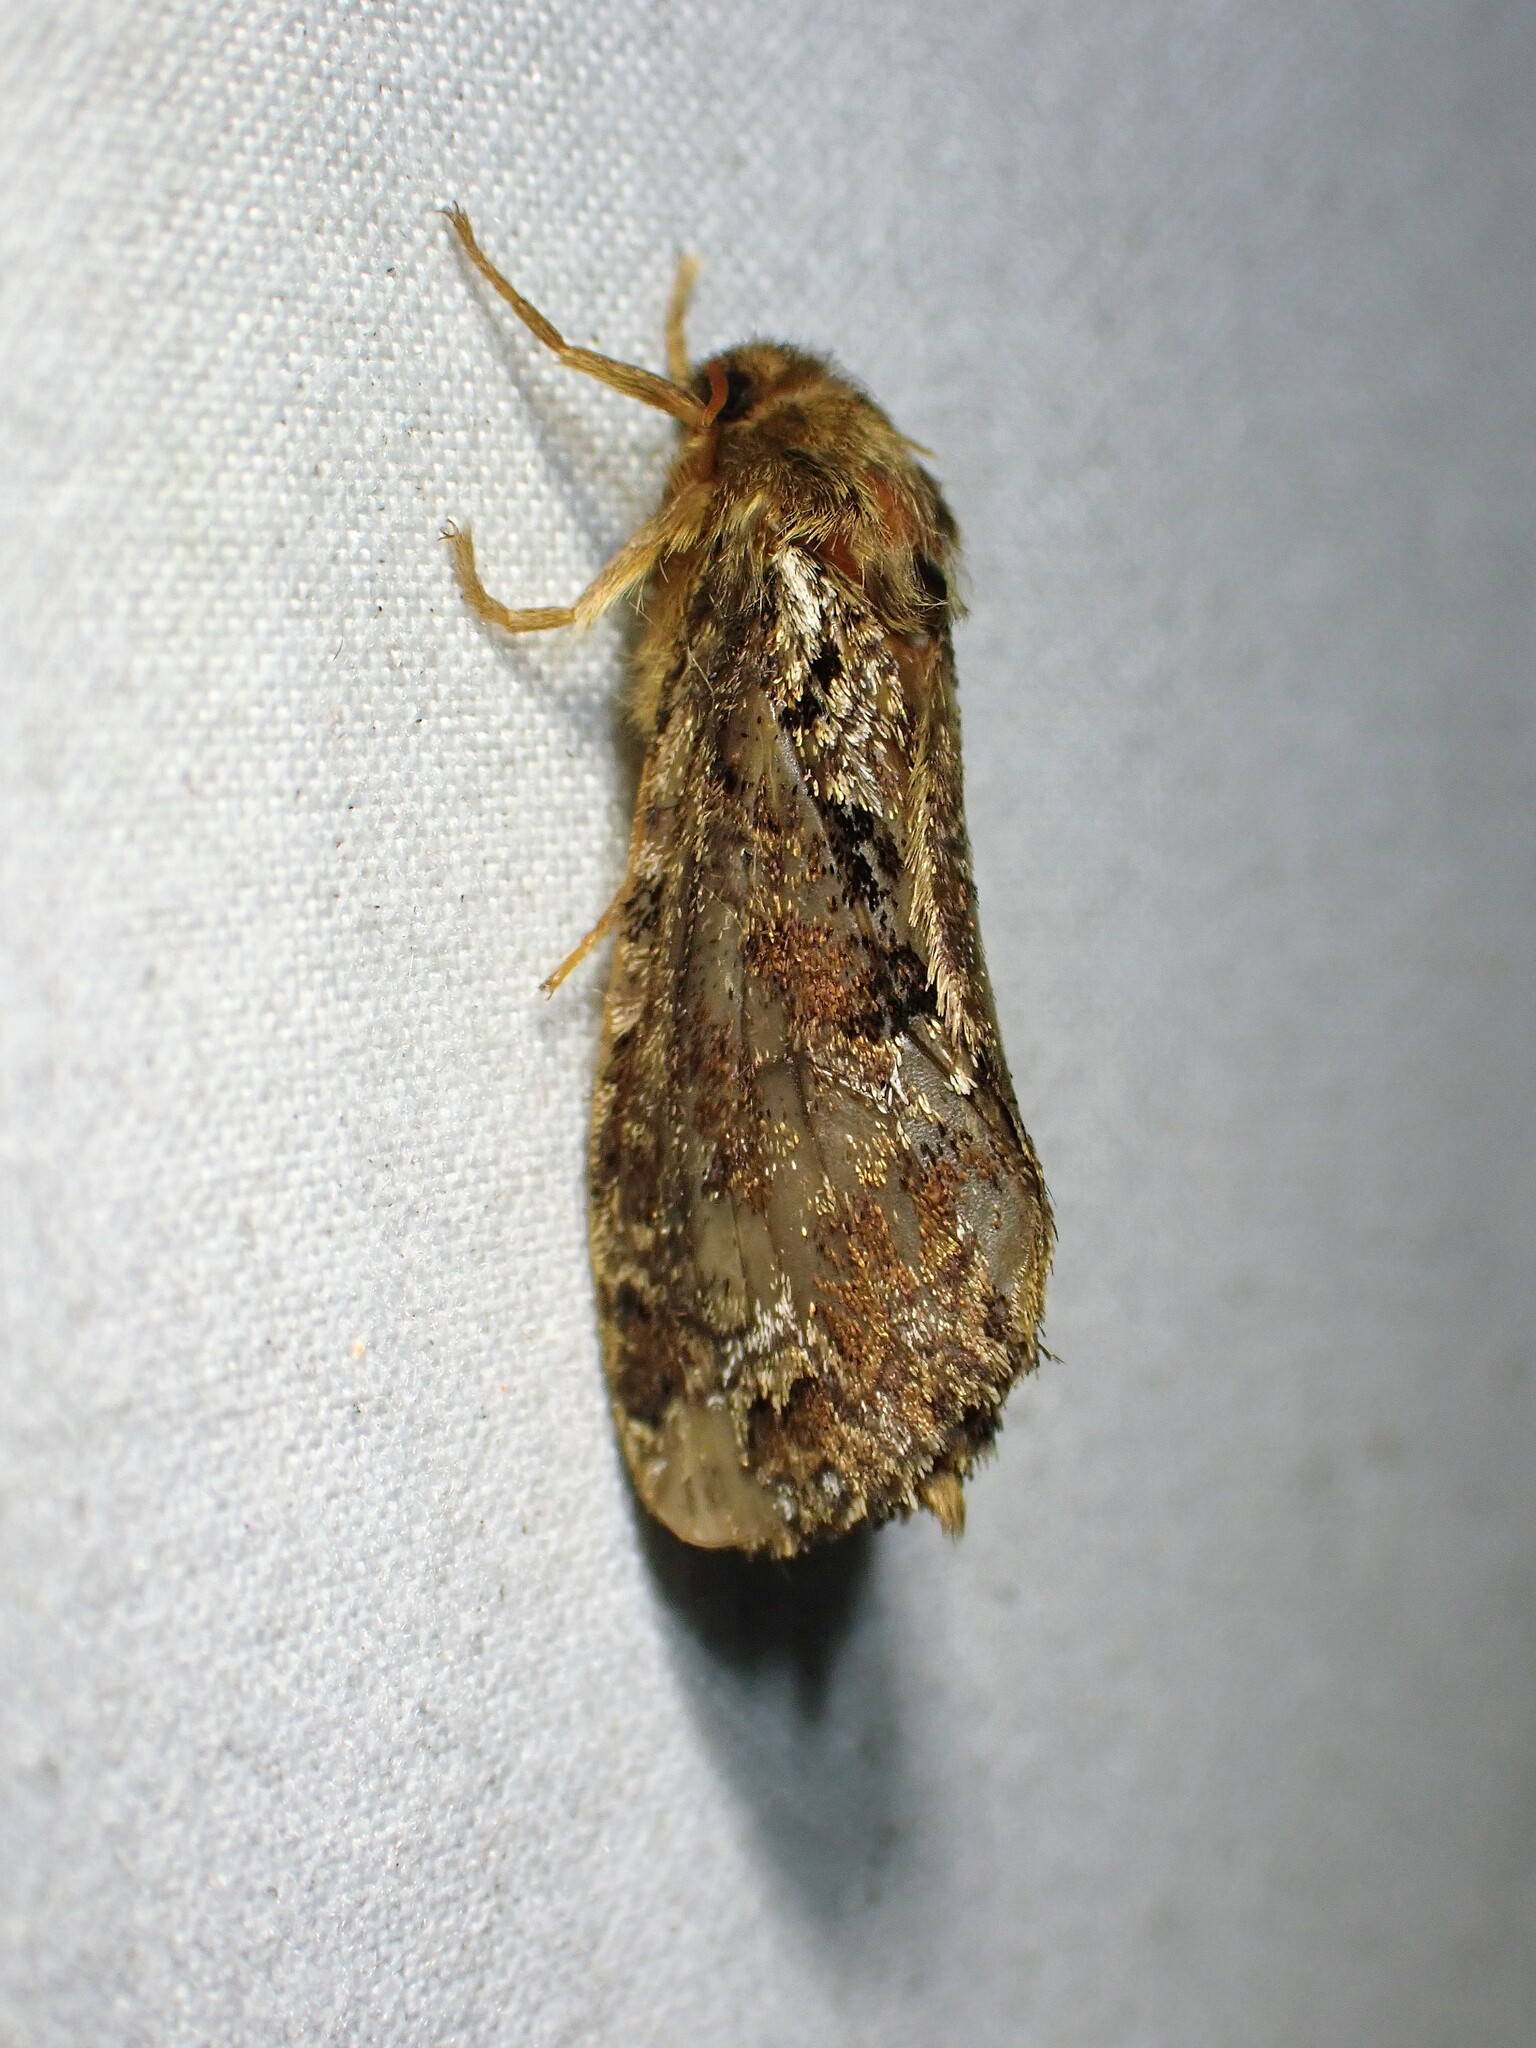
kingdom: Animalia
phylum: Arthropoda
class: Insecta
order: Lepidoptera
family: Hepialidae
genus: Korscheltellus
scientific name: Korscheltellus gracilis
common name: Conifer swift moth
